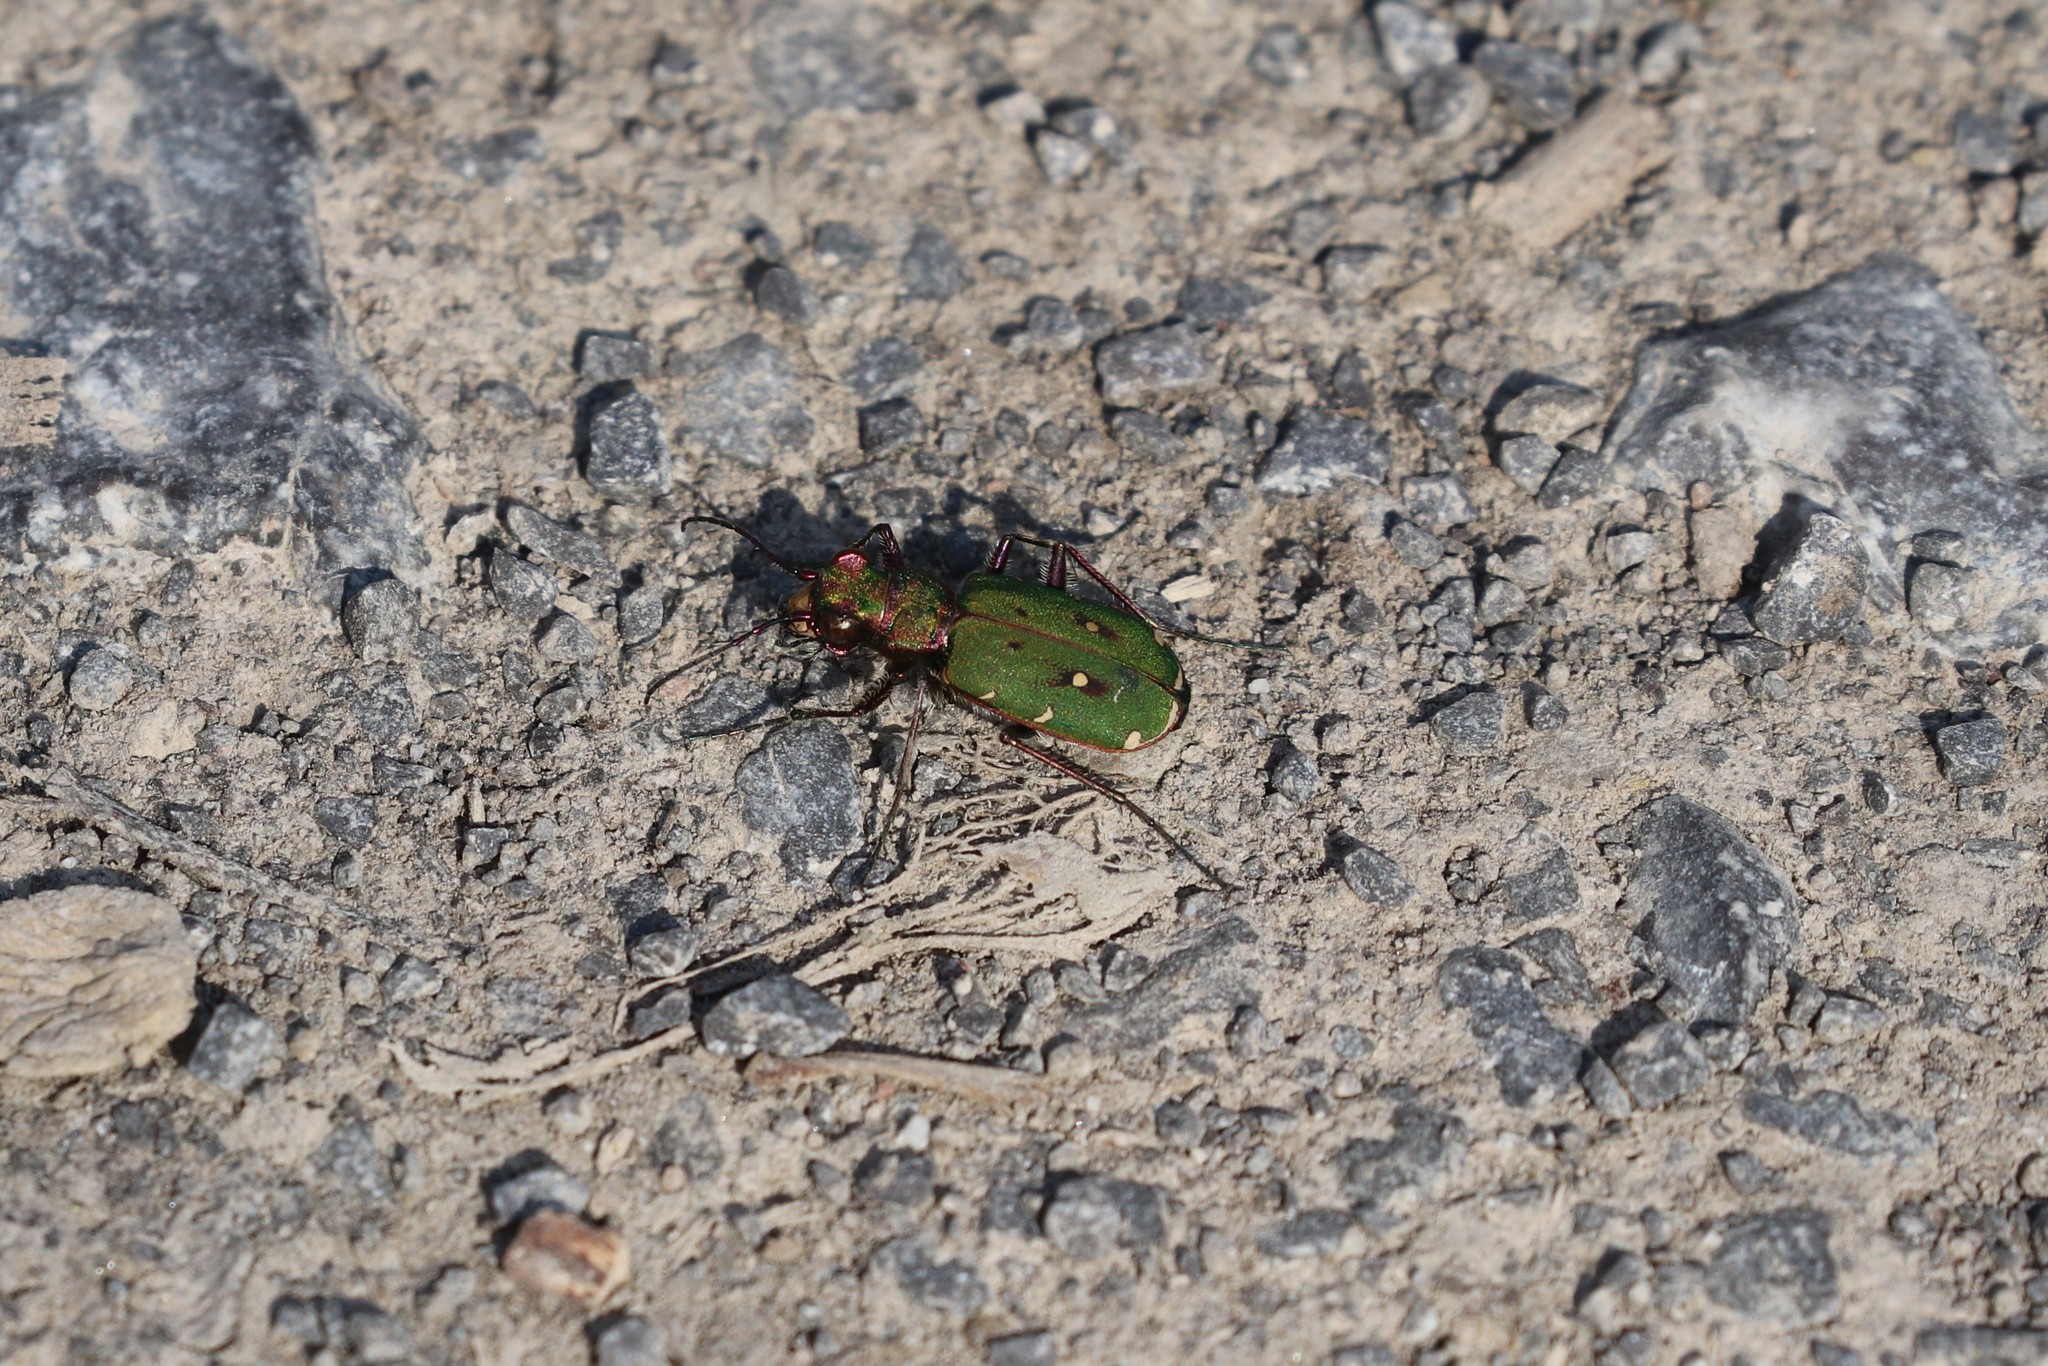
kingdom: Animalia
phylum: Arthropoda
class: Insecta
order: Coleoptera
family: Carabidae
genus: Cicindela
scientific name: Cicindela campestris
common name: Common tiger beetle
